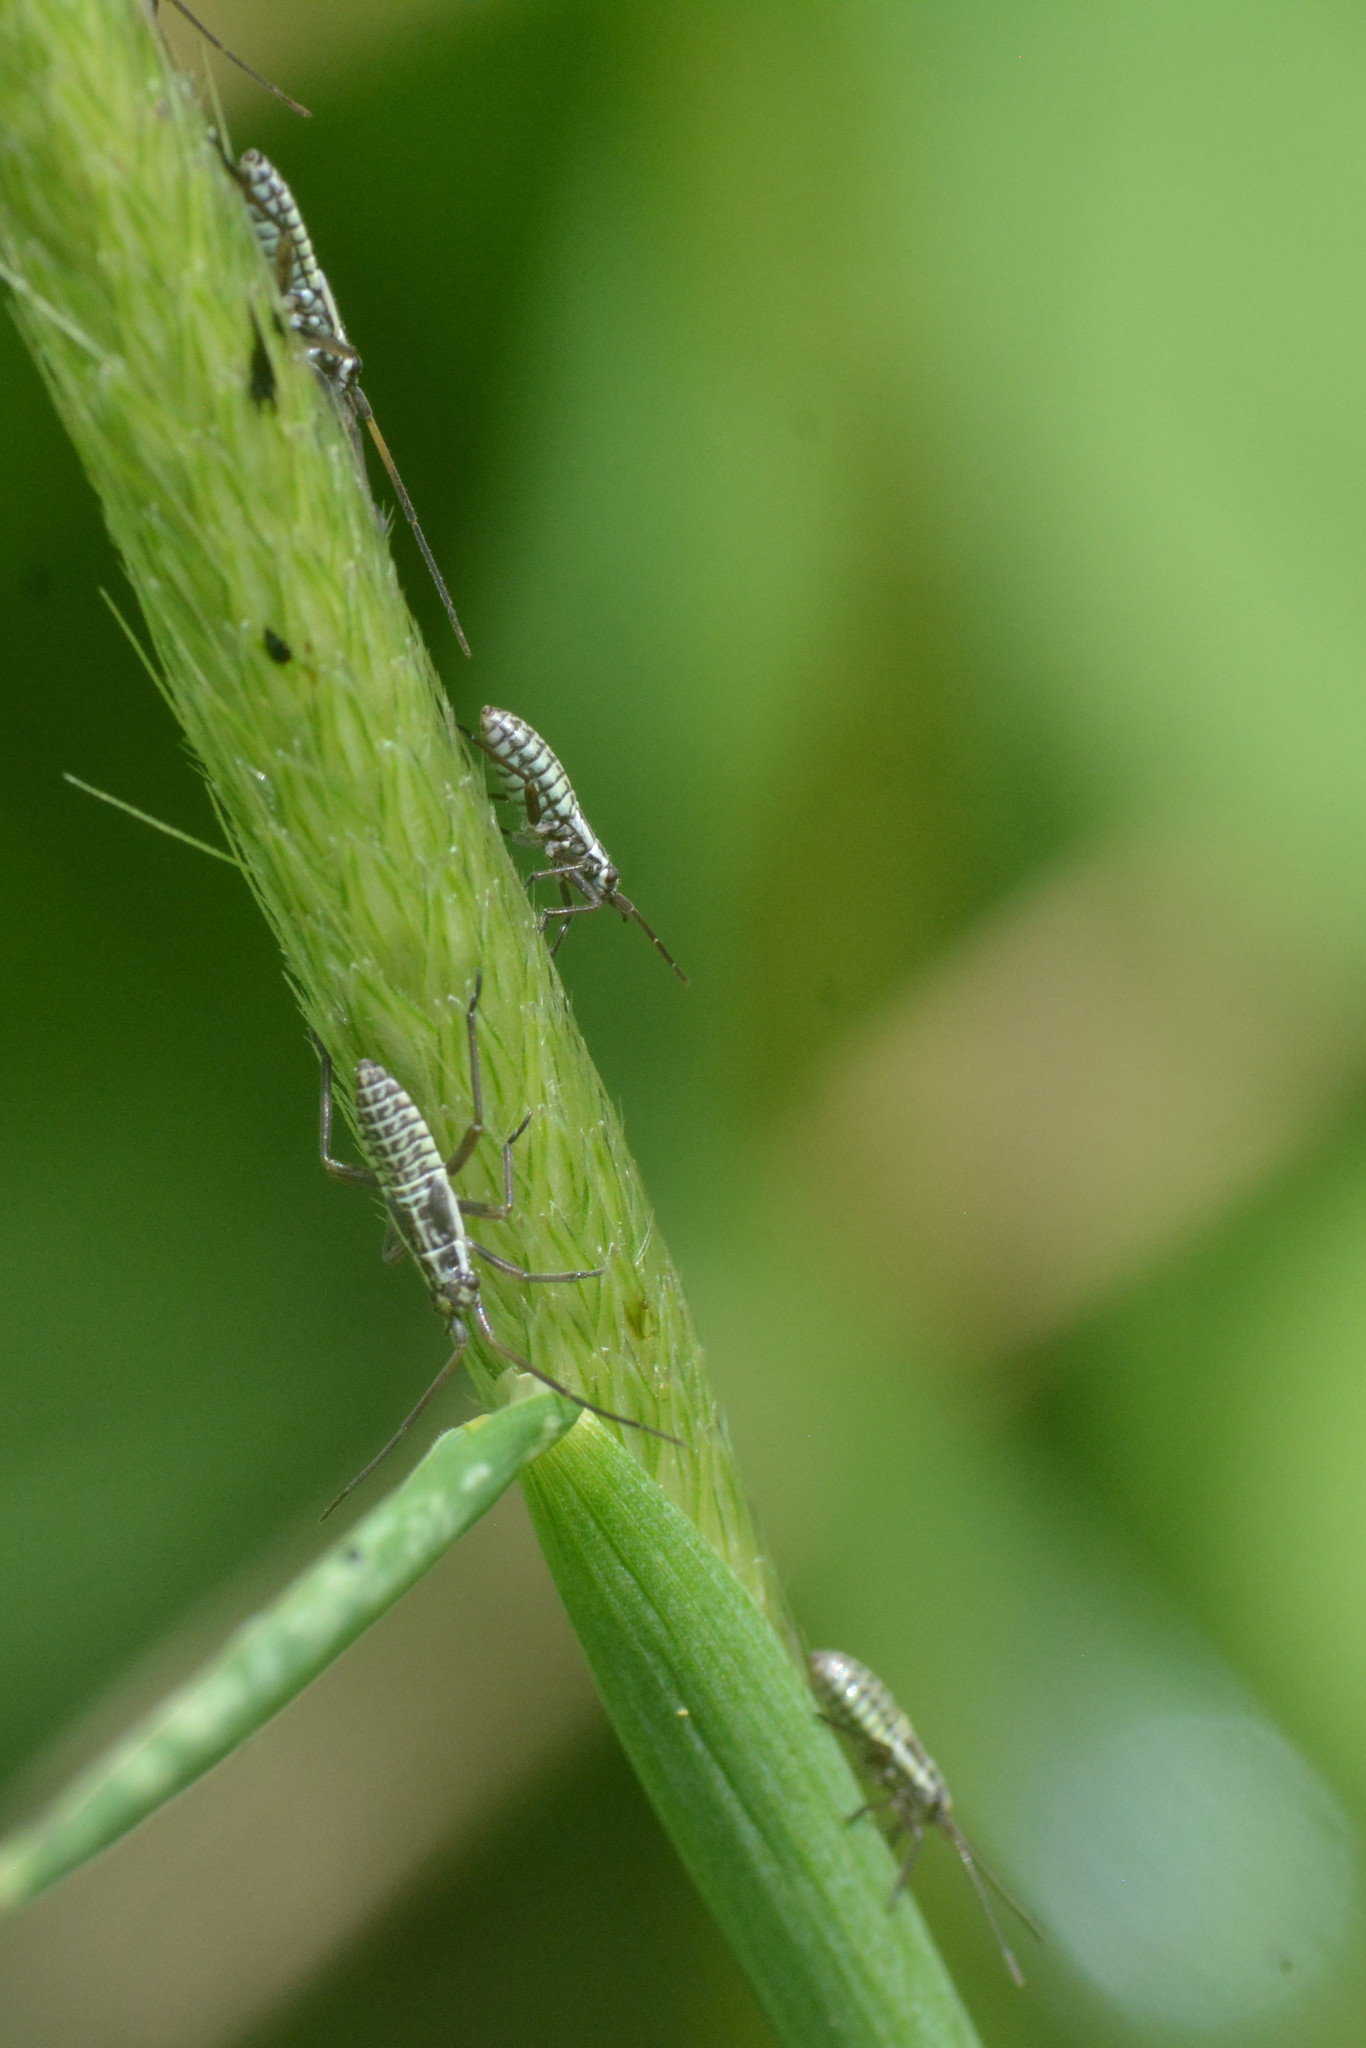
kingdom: Animalia
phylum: Arthropoda
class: Insecta
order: Hemiptera
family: Miridae
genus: Leptopterna
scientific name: Leptopterna dolabrata
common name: Meadow plant bug
